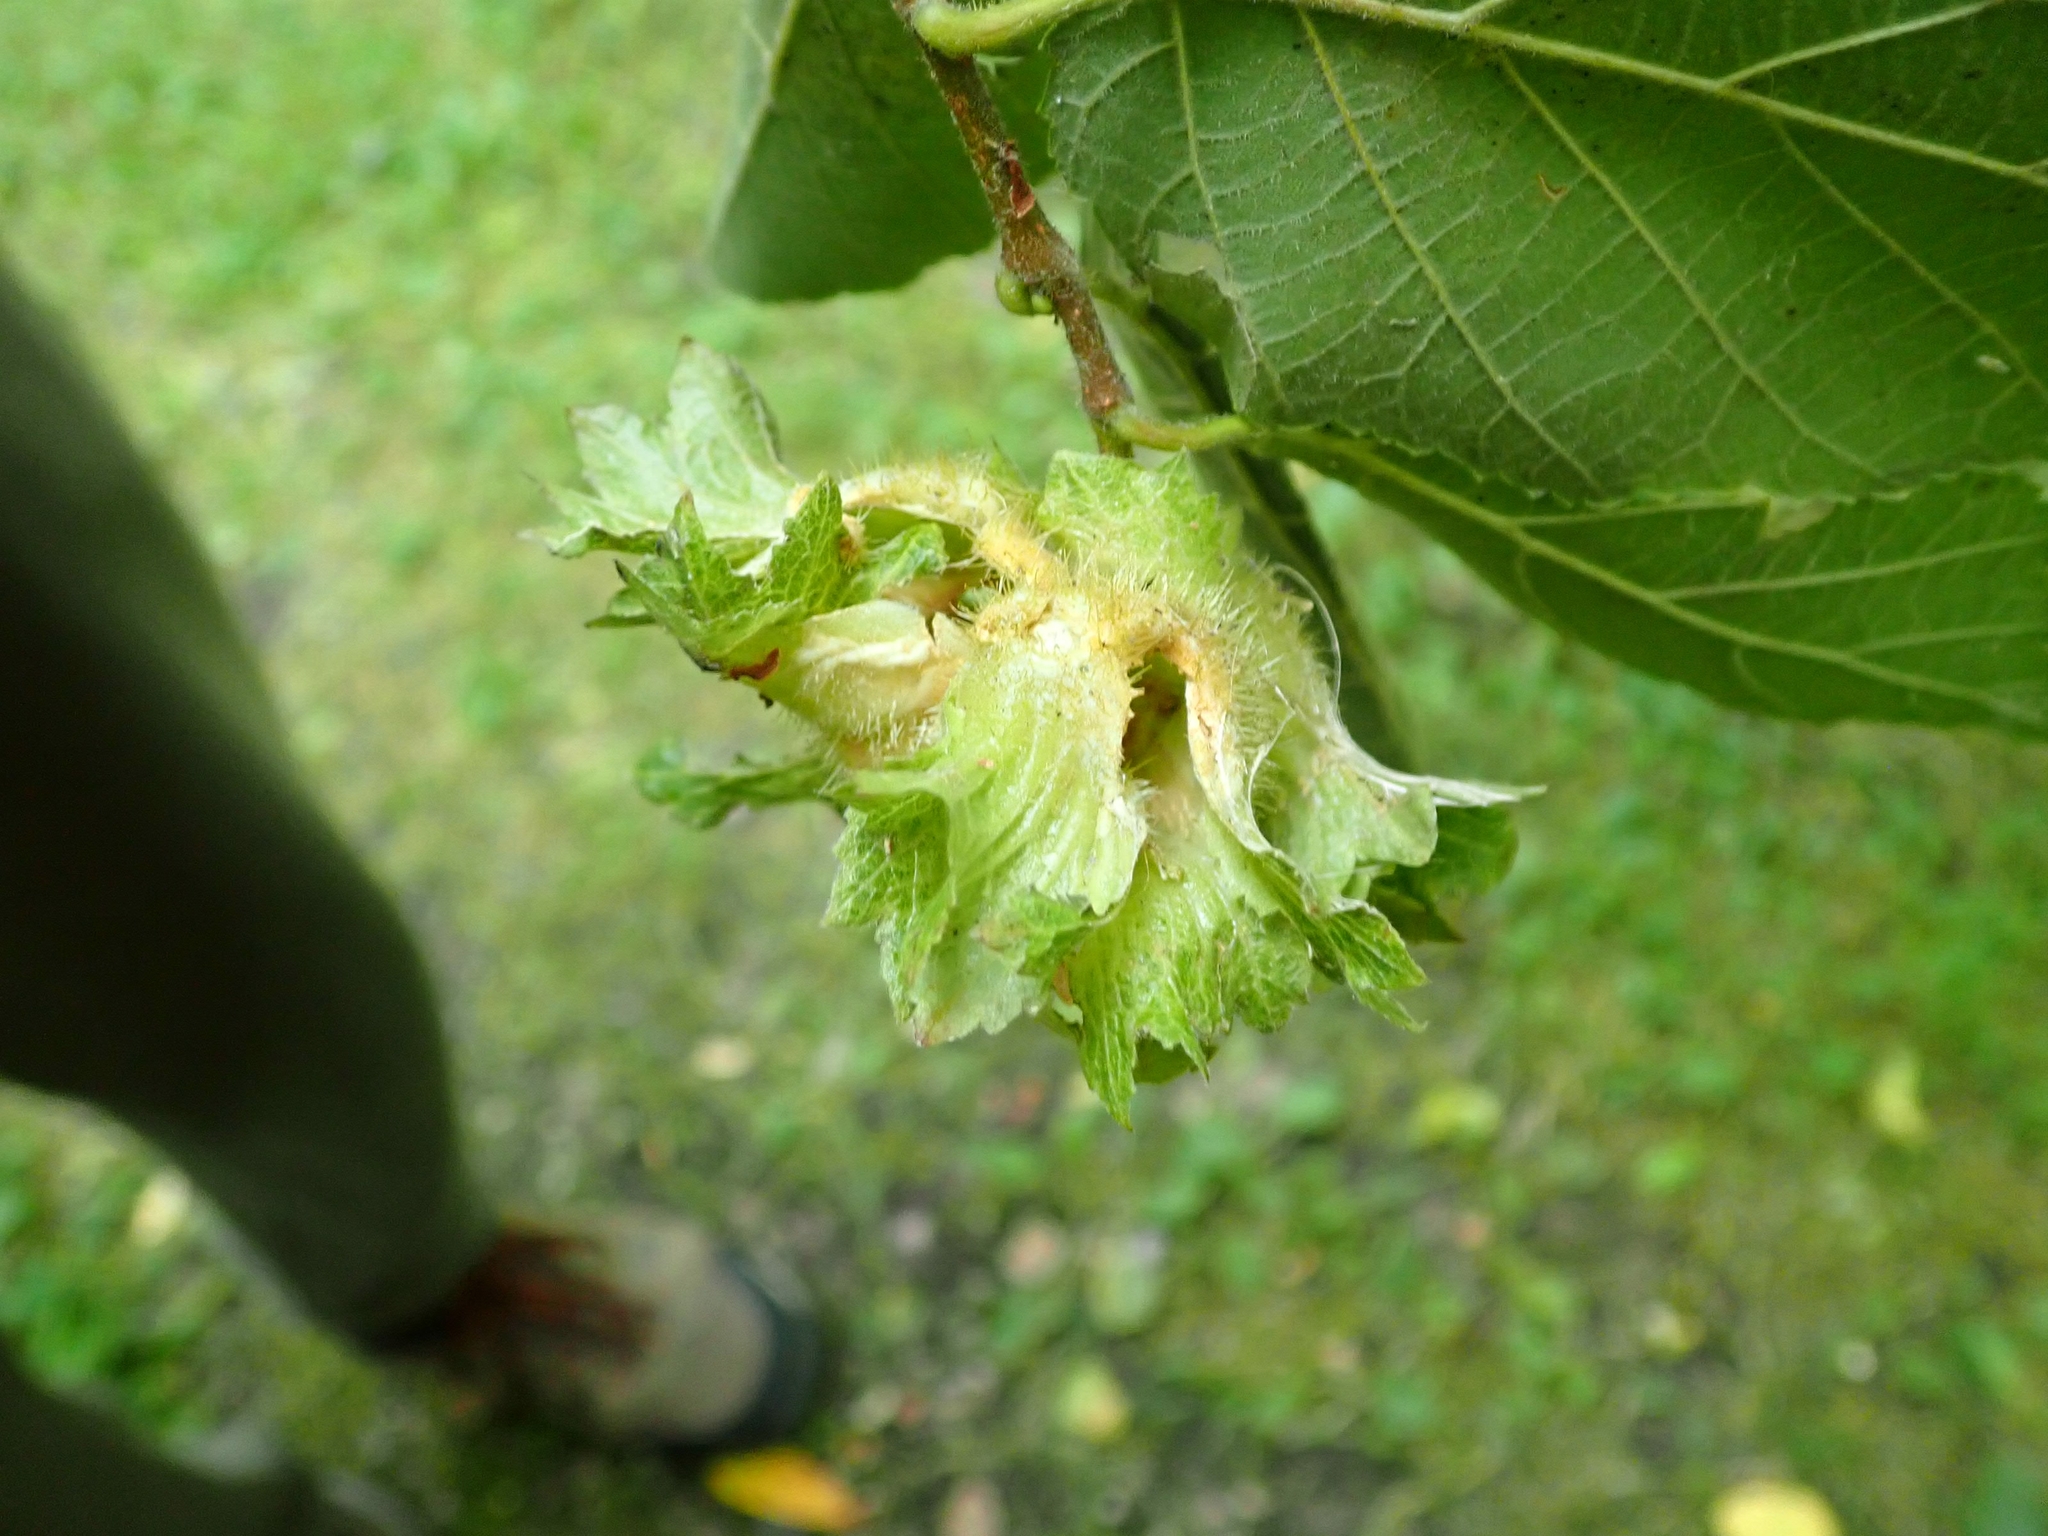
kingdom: Plantae
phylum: Tracheophyta
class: Magnoliopsida
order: Fagales
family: Betulaceae
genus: Corylus
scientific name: Corylus americana
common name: American hazel
